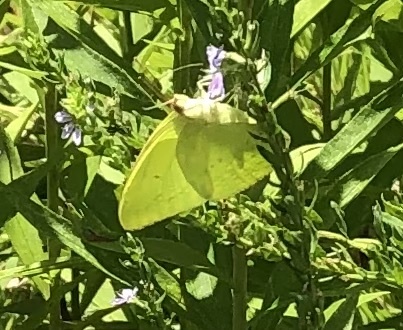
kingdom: Animalia
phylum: Arthropoda
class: Insecta
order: Lepidoptera
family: Pieridae
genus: Phoebis
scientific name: Phoebis sennae
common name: Cloudless sulphur
